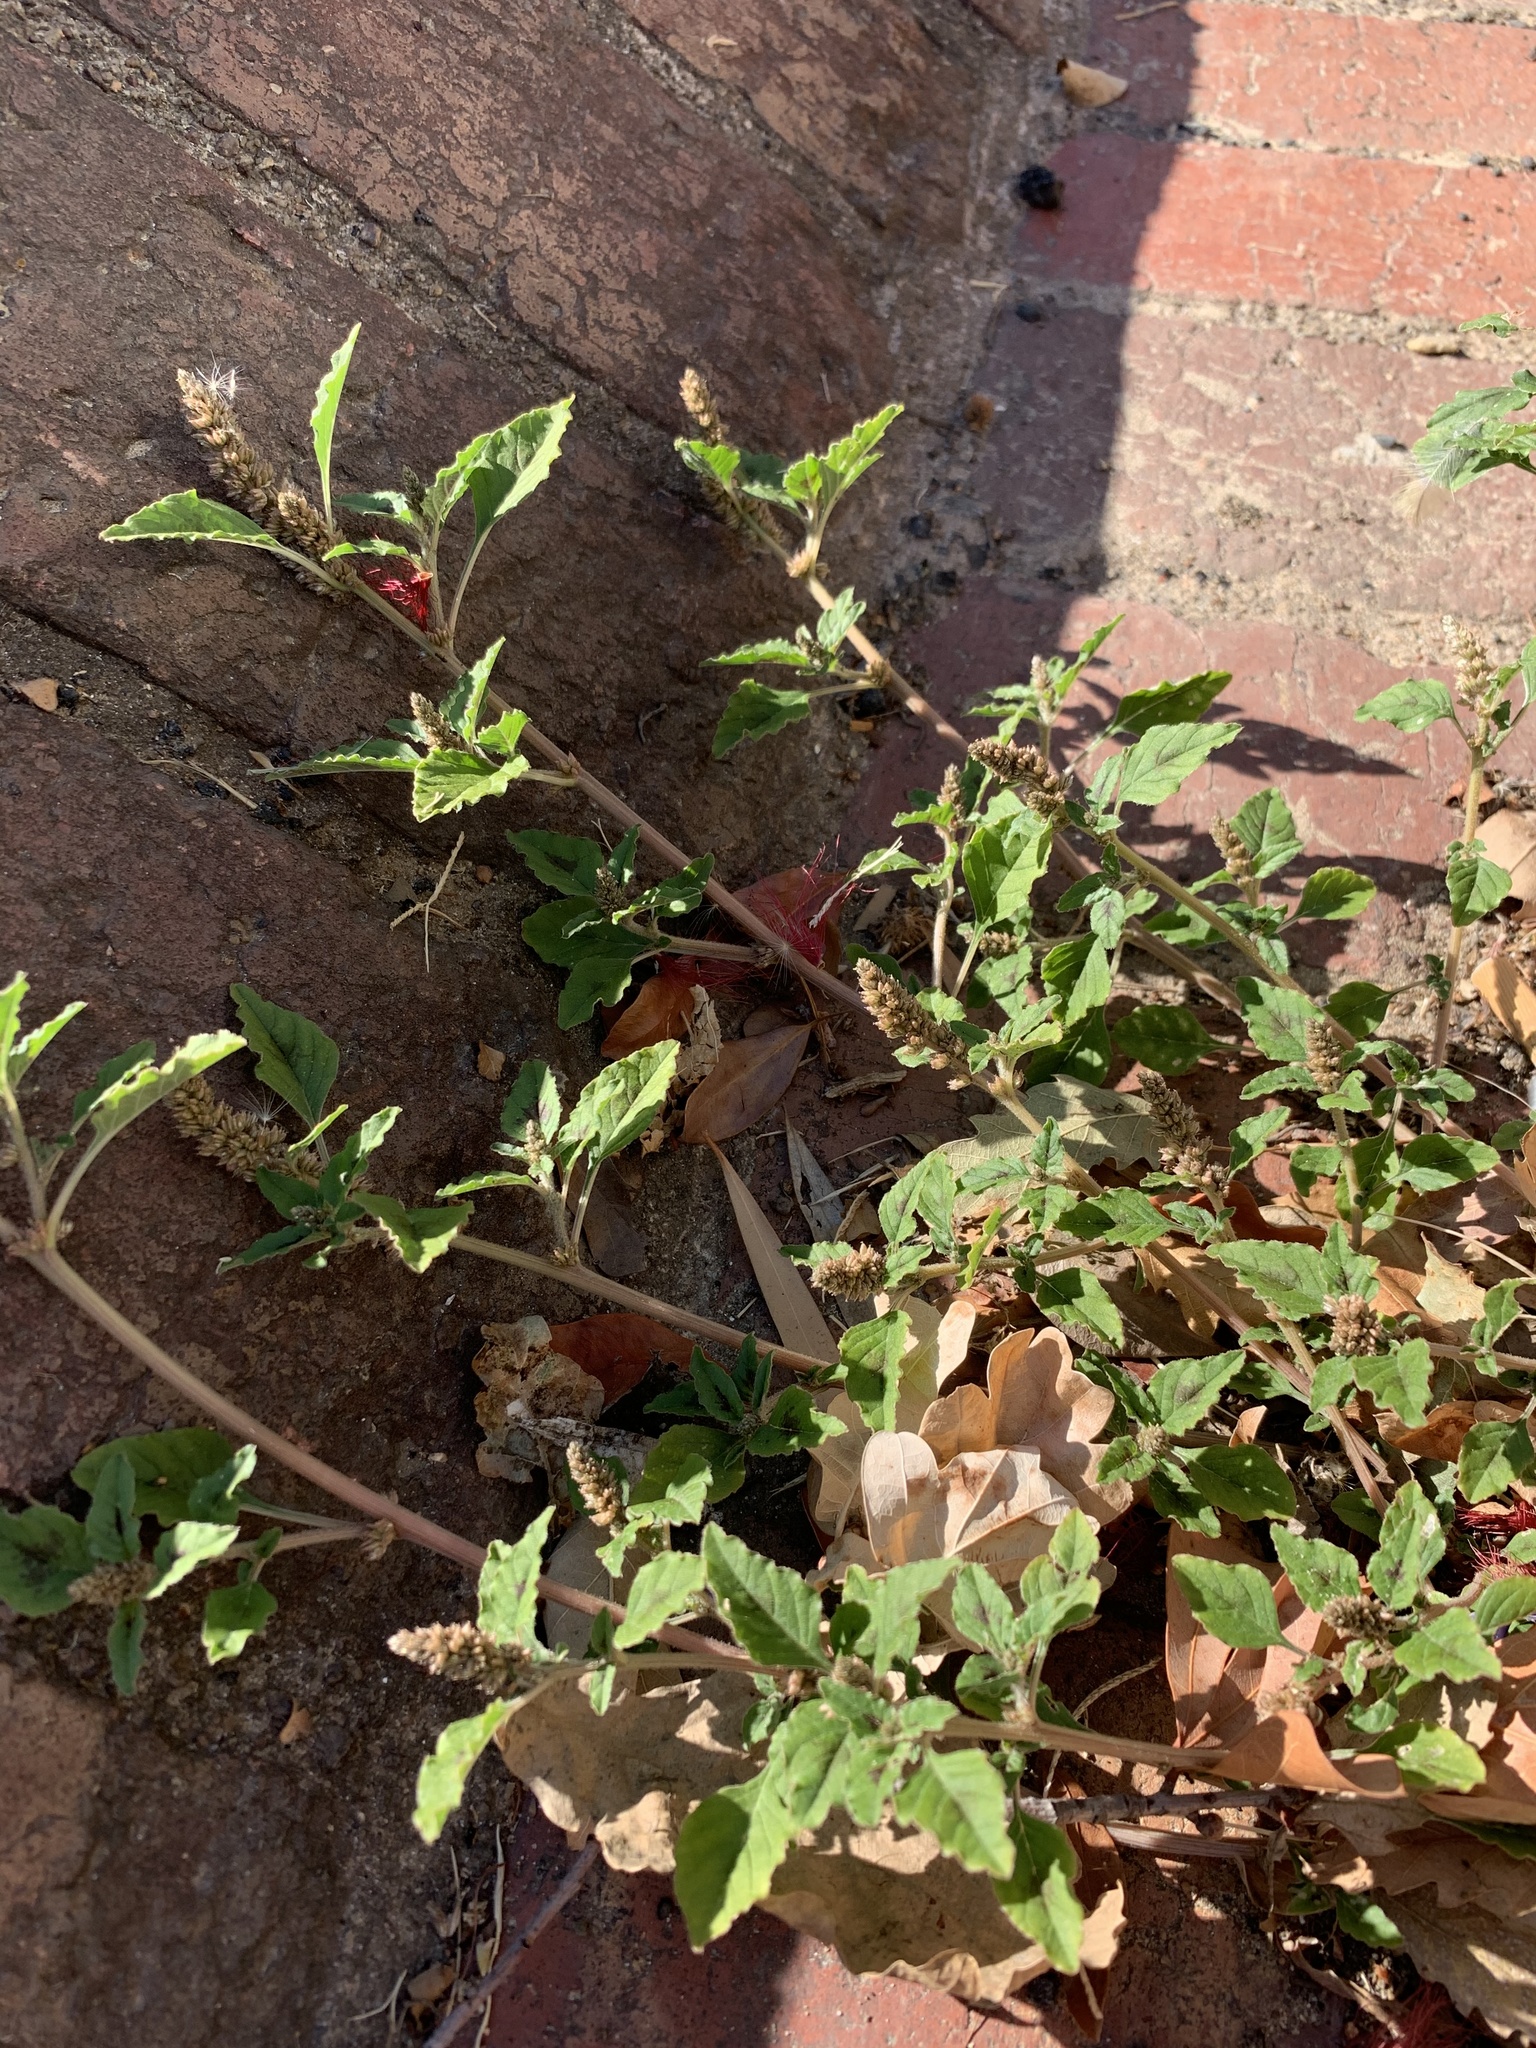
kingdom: Plantae
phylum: Tracheophyta
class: Magnoliopsida
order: Caryophyllales
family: Amaranthaceae
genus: Amaranthus
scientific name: Amaranthus deflexus
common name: Perennial pigweed
